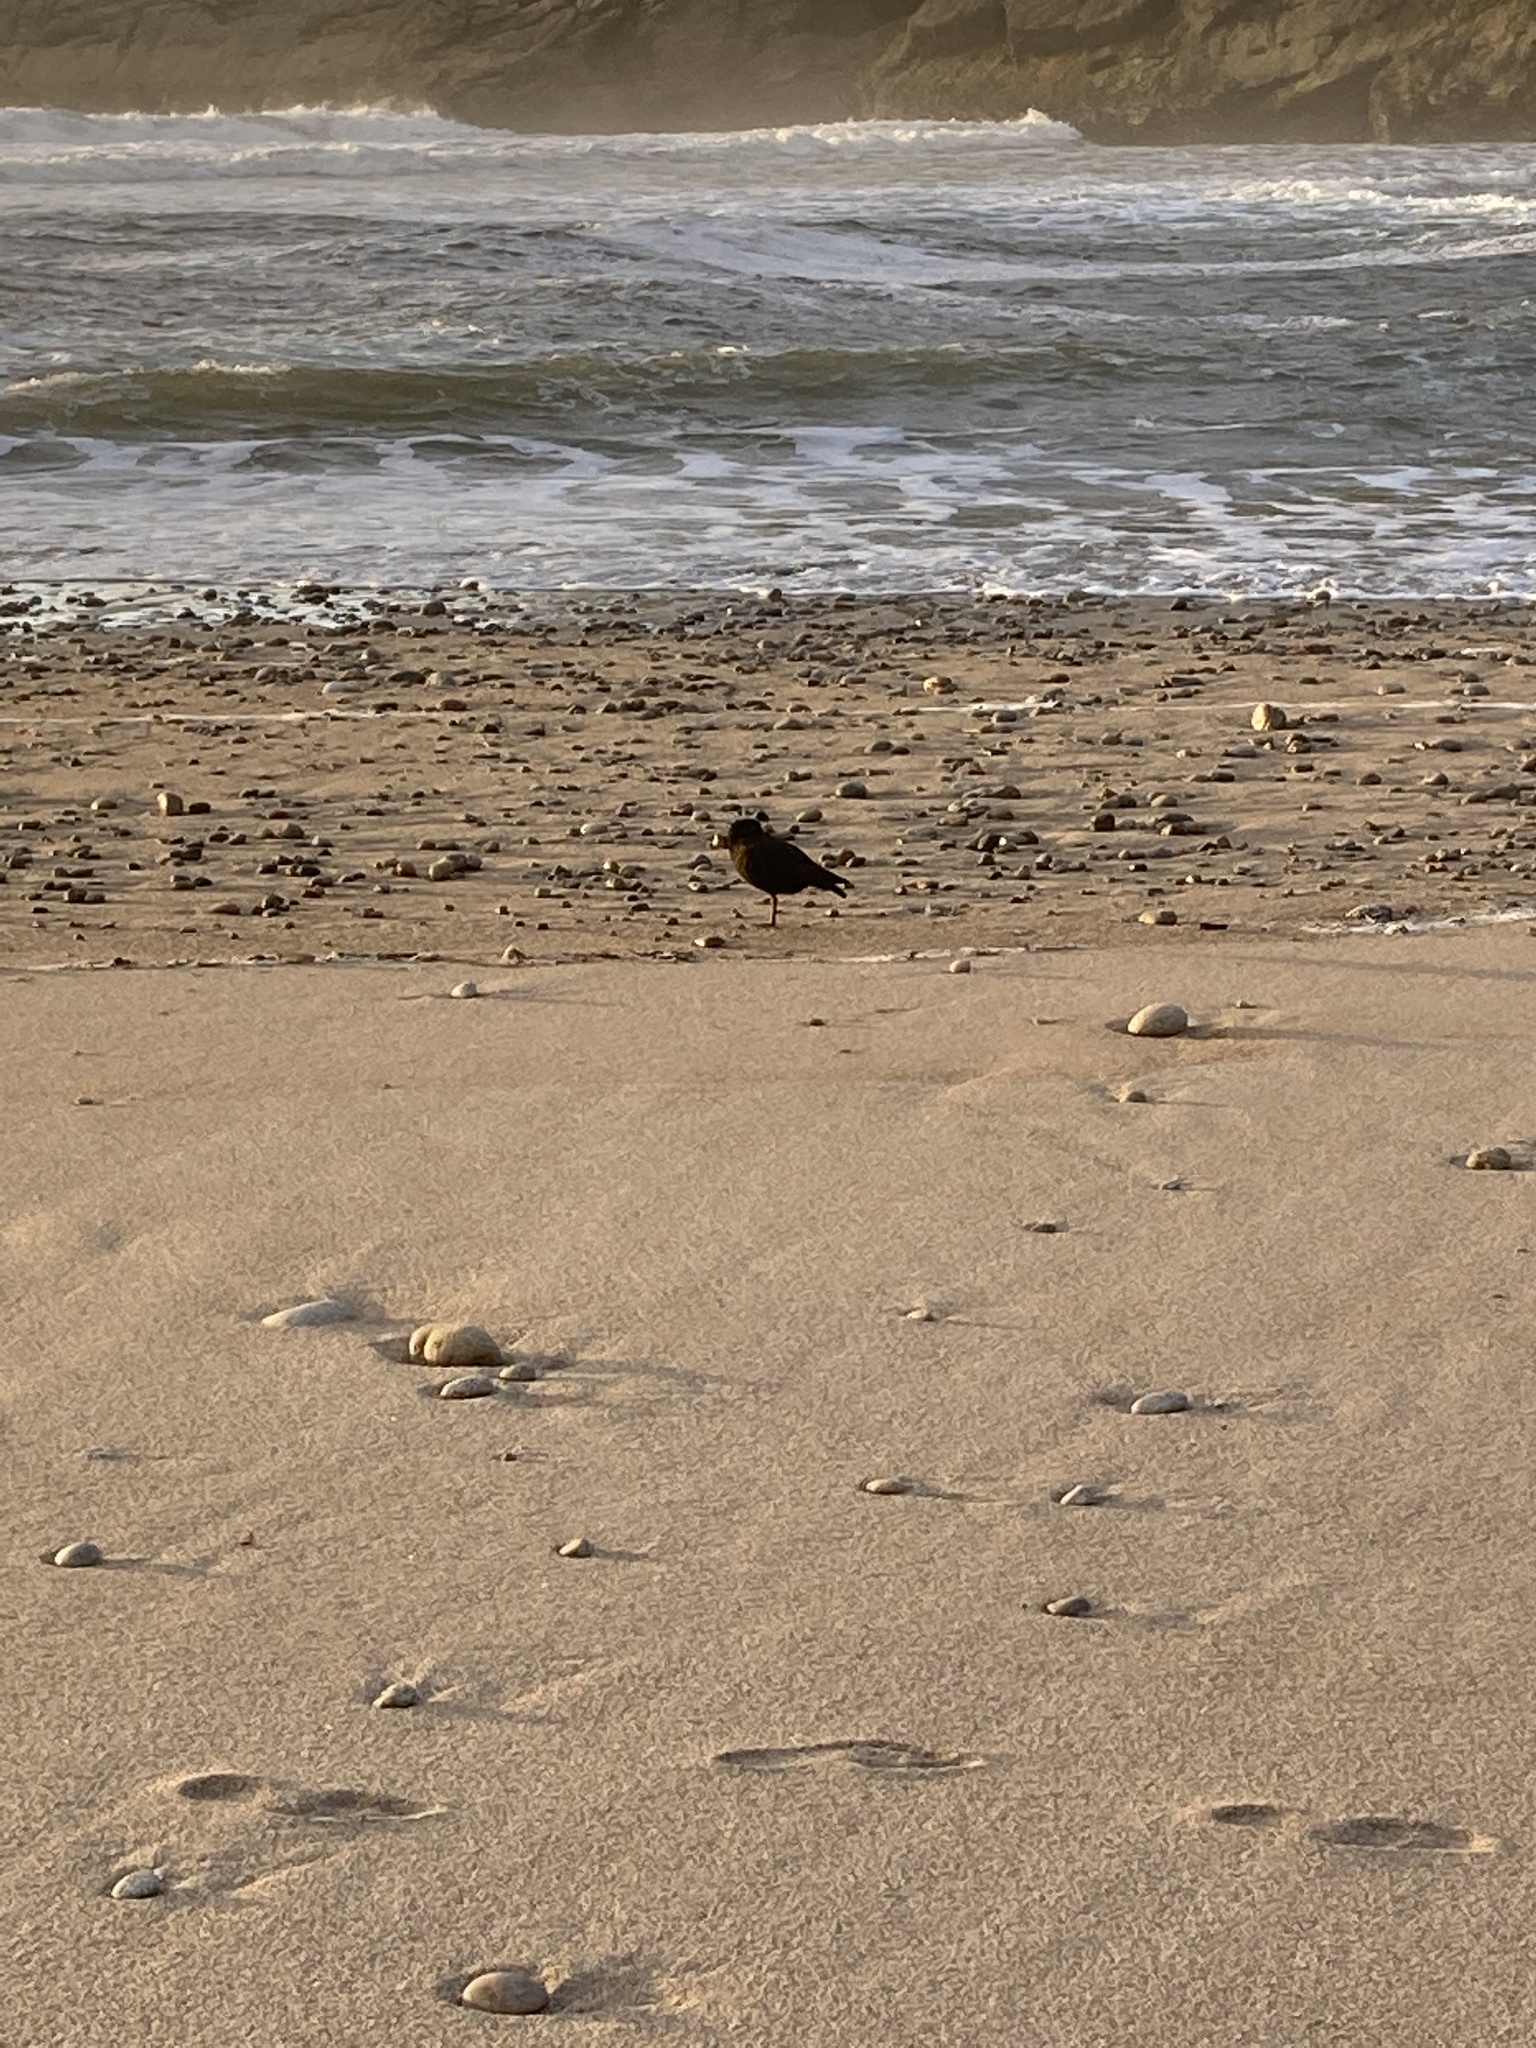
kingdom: Animalia
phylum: Chordata
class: Aves
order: Charadriiformes
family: Haematopodidae
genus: Haematopus
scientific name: Haematopus unicolor
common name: Variable oystercatcher
